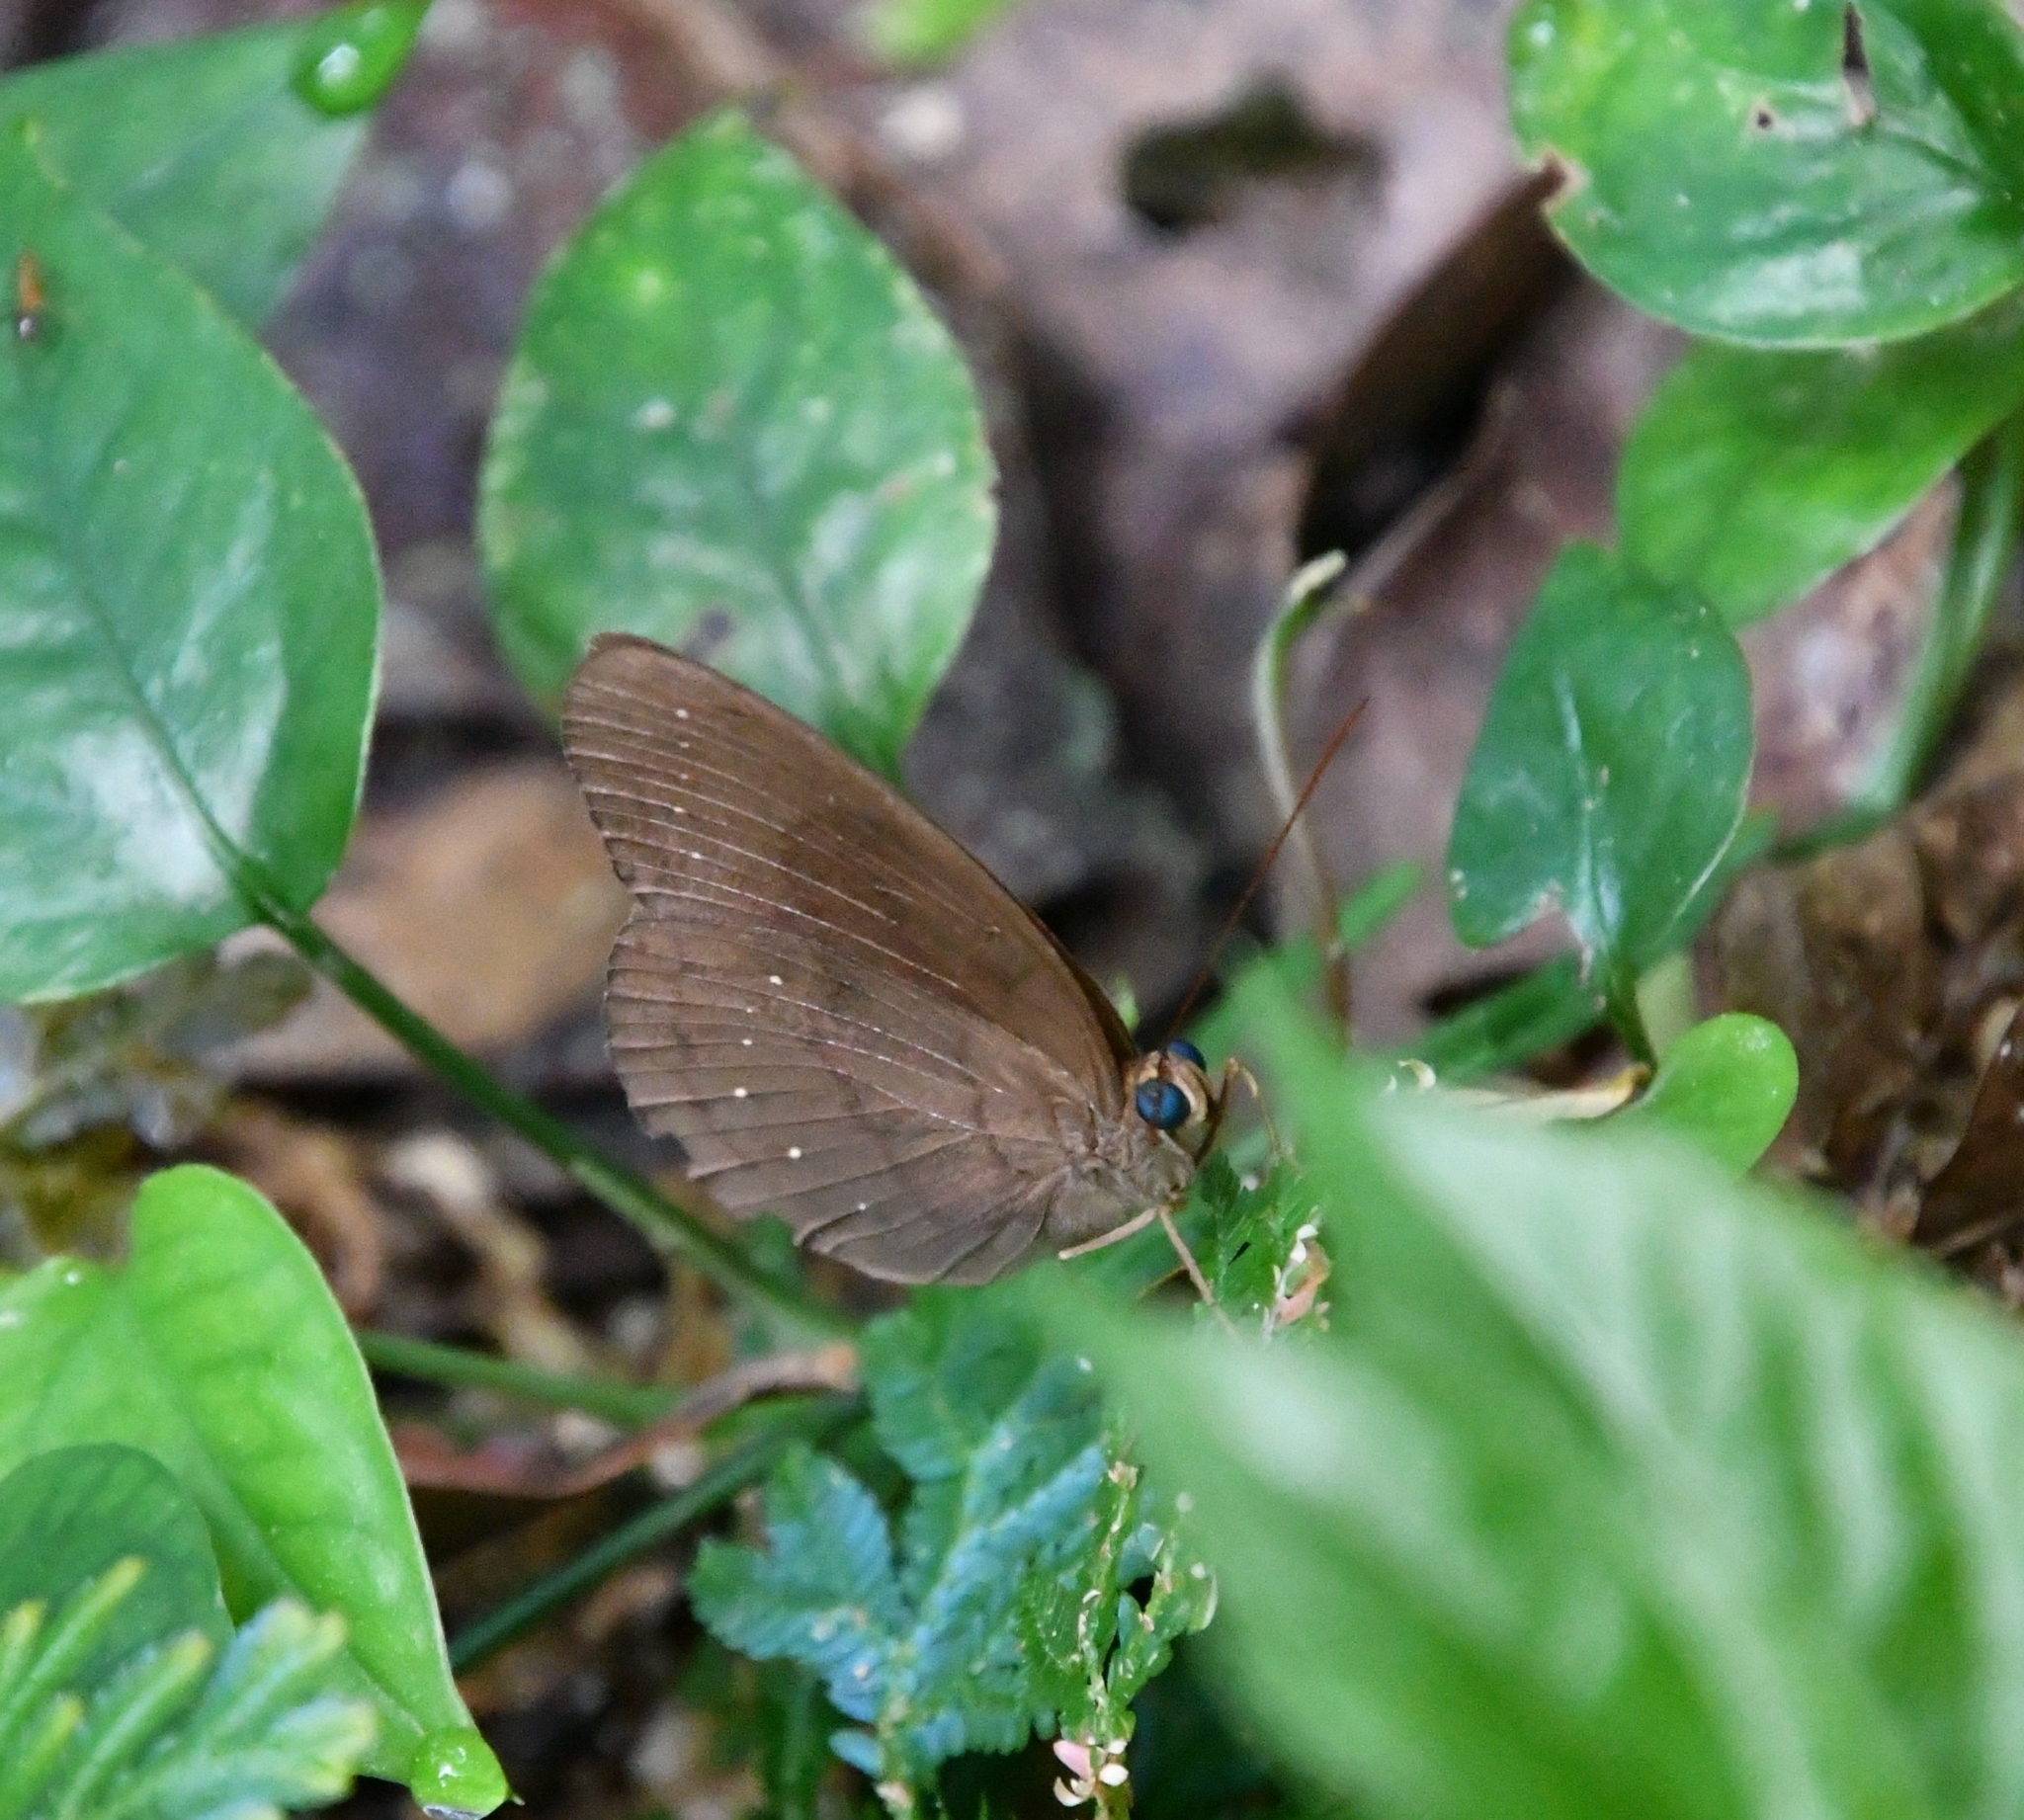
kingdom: Animalia
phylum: Arthropoda
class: Insecta
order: Lepidoptera
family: Nymphalidae
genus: Faunis
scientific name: Faunis canens
